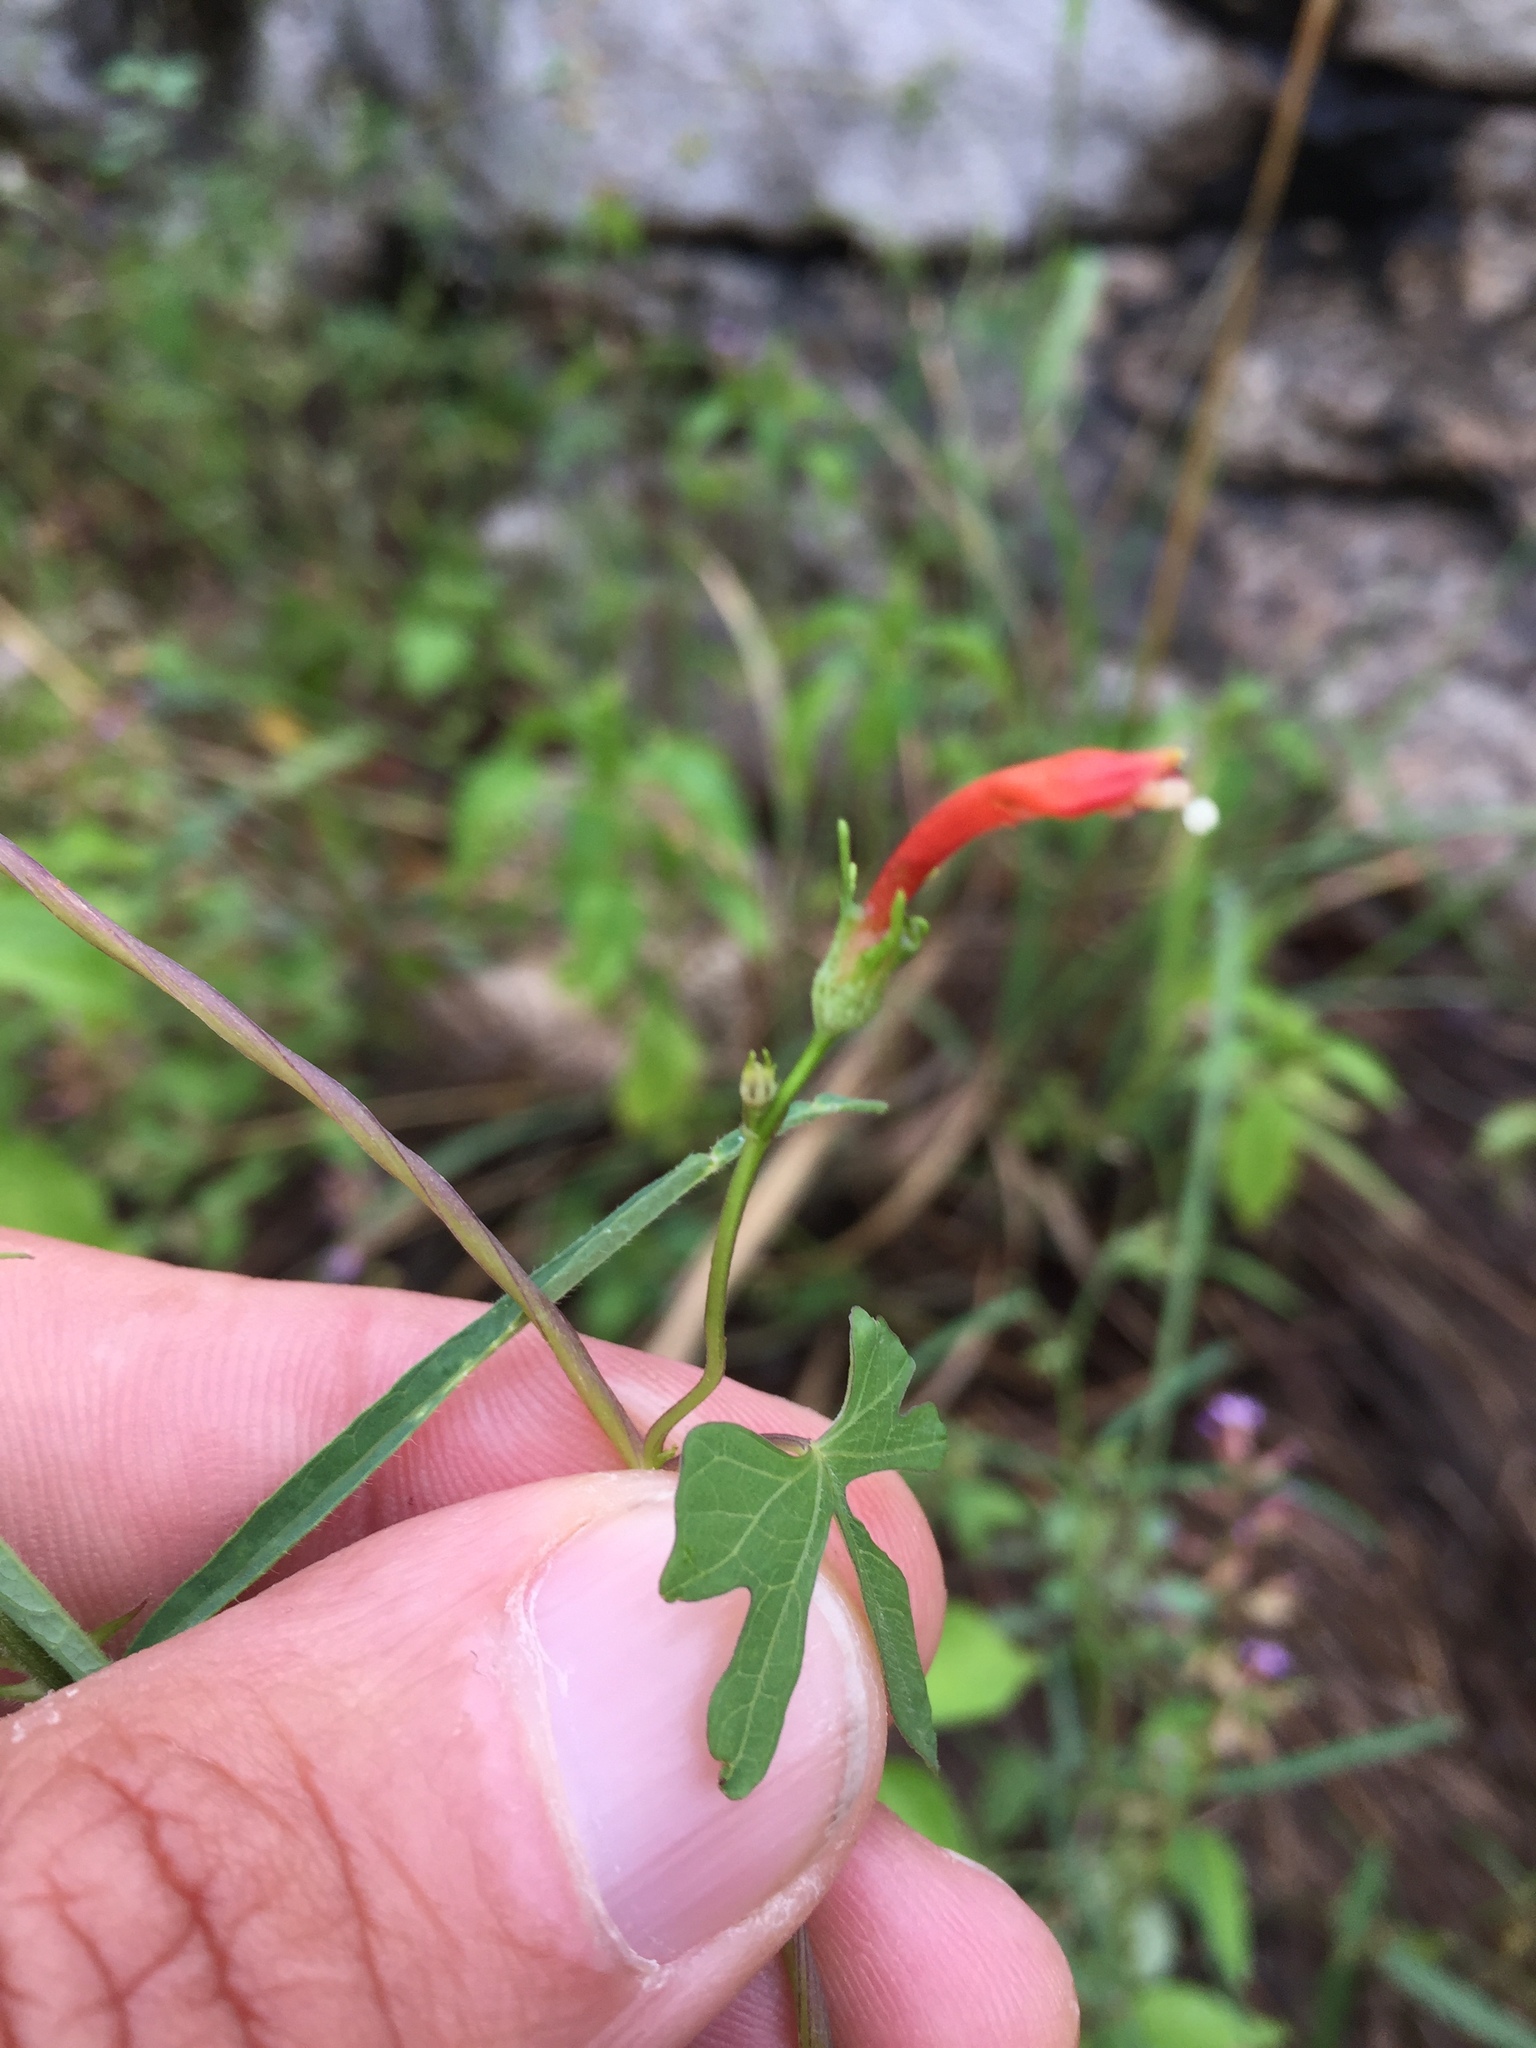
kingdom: Plantae
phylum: Tracheophyta
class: Magnoliopsida
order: Solanales
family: Convolvulaceae
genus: Ipomoea
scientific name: Ipomoea cristulata
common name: Trans-pecos morning-glory
